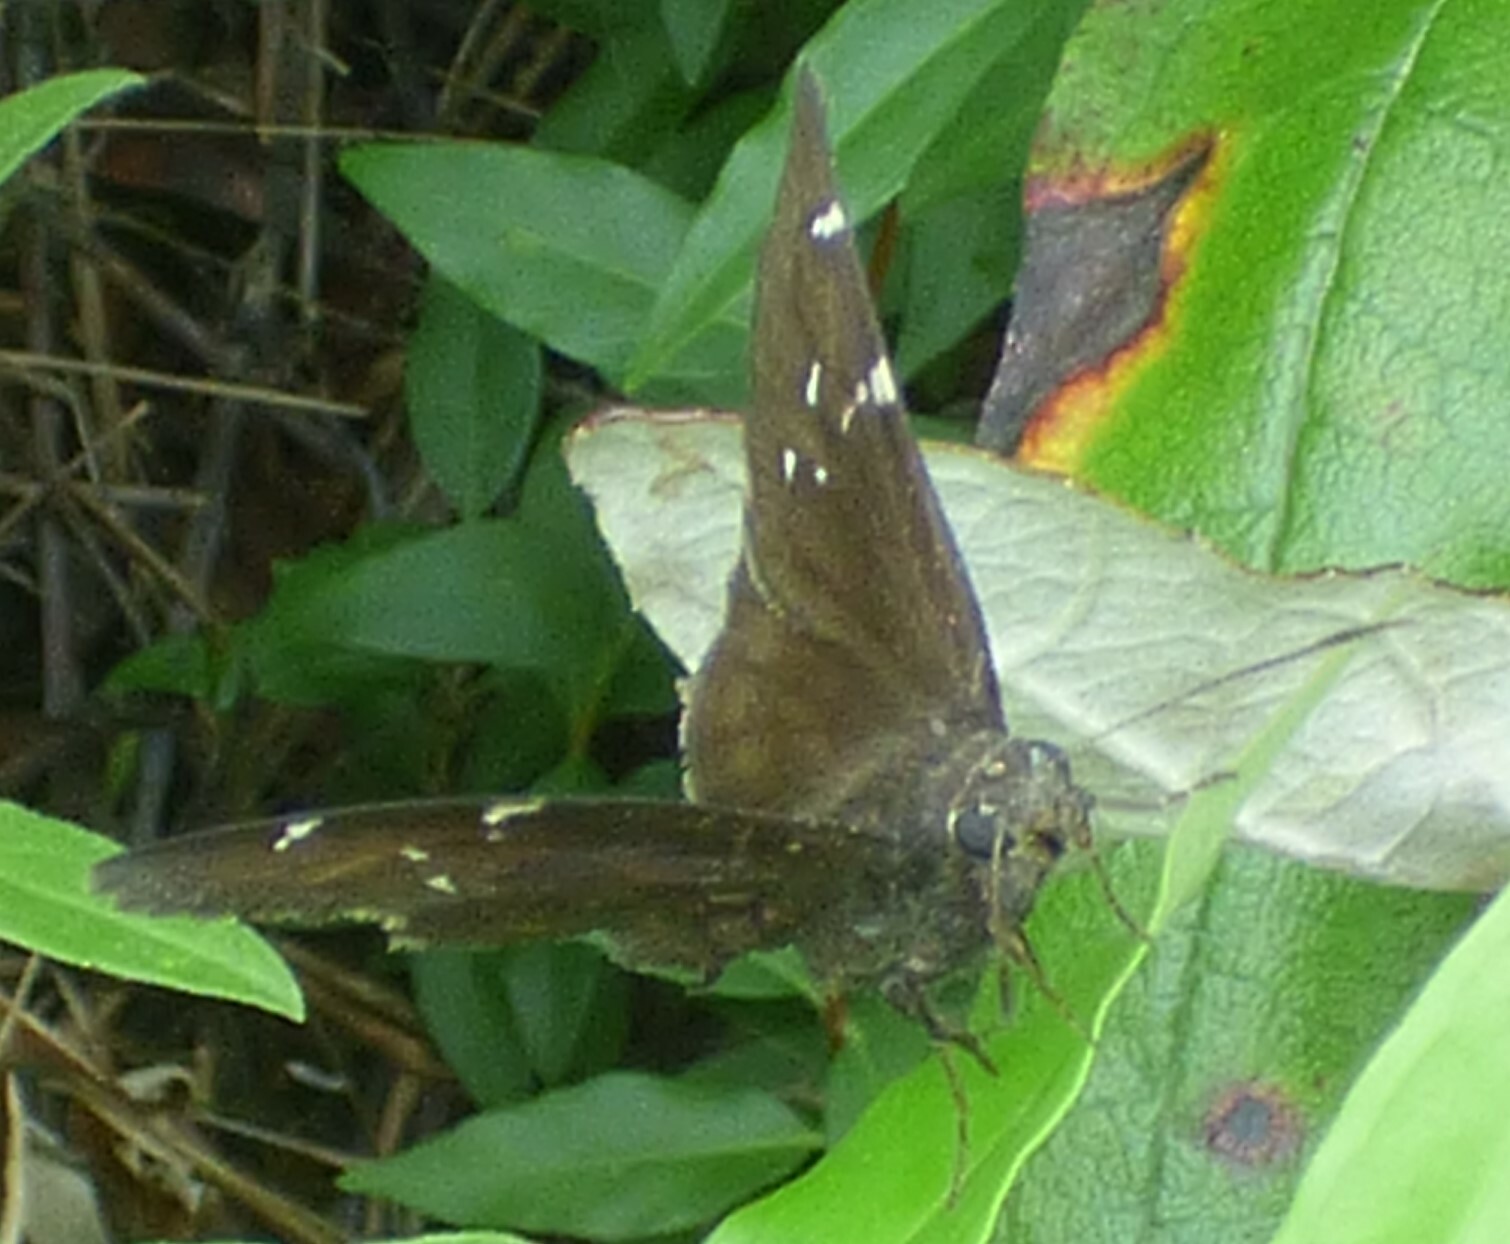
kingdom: Animalia
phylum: Arthropoda
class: Insecta
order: Lepidoptera
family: Hesperiidae
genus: Thorybes
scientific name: Thorybes pylades
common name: Northern cloudywing
